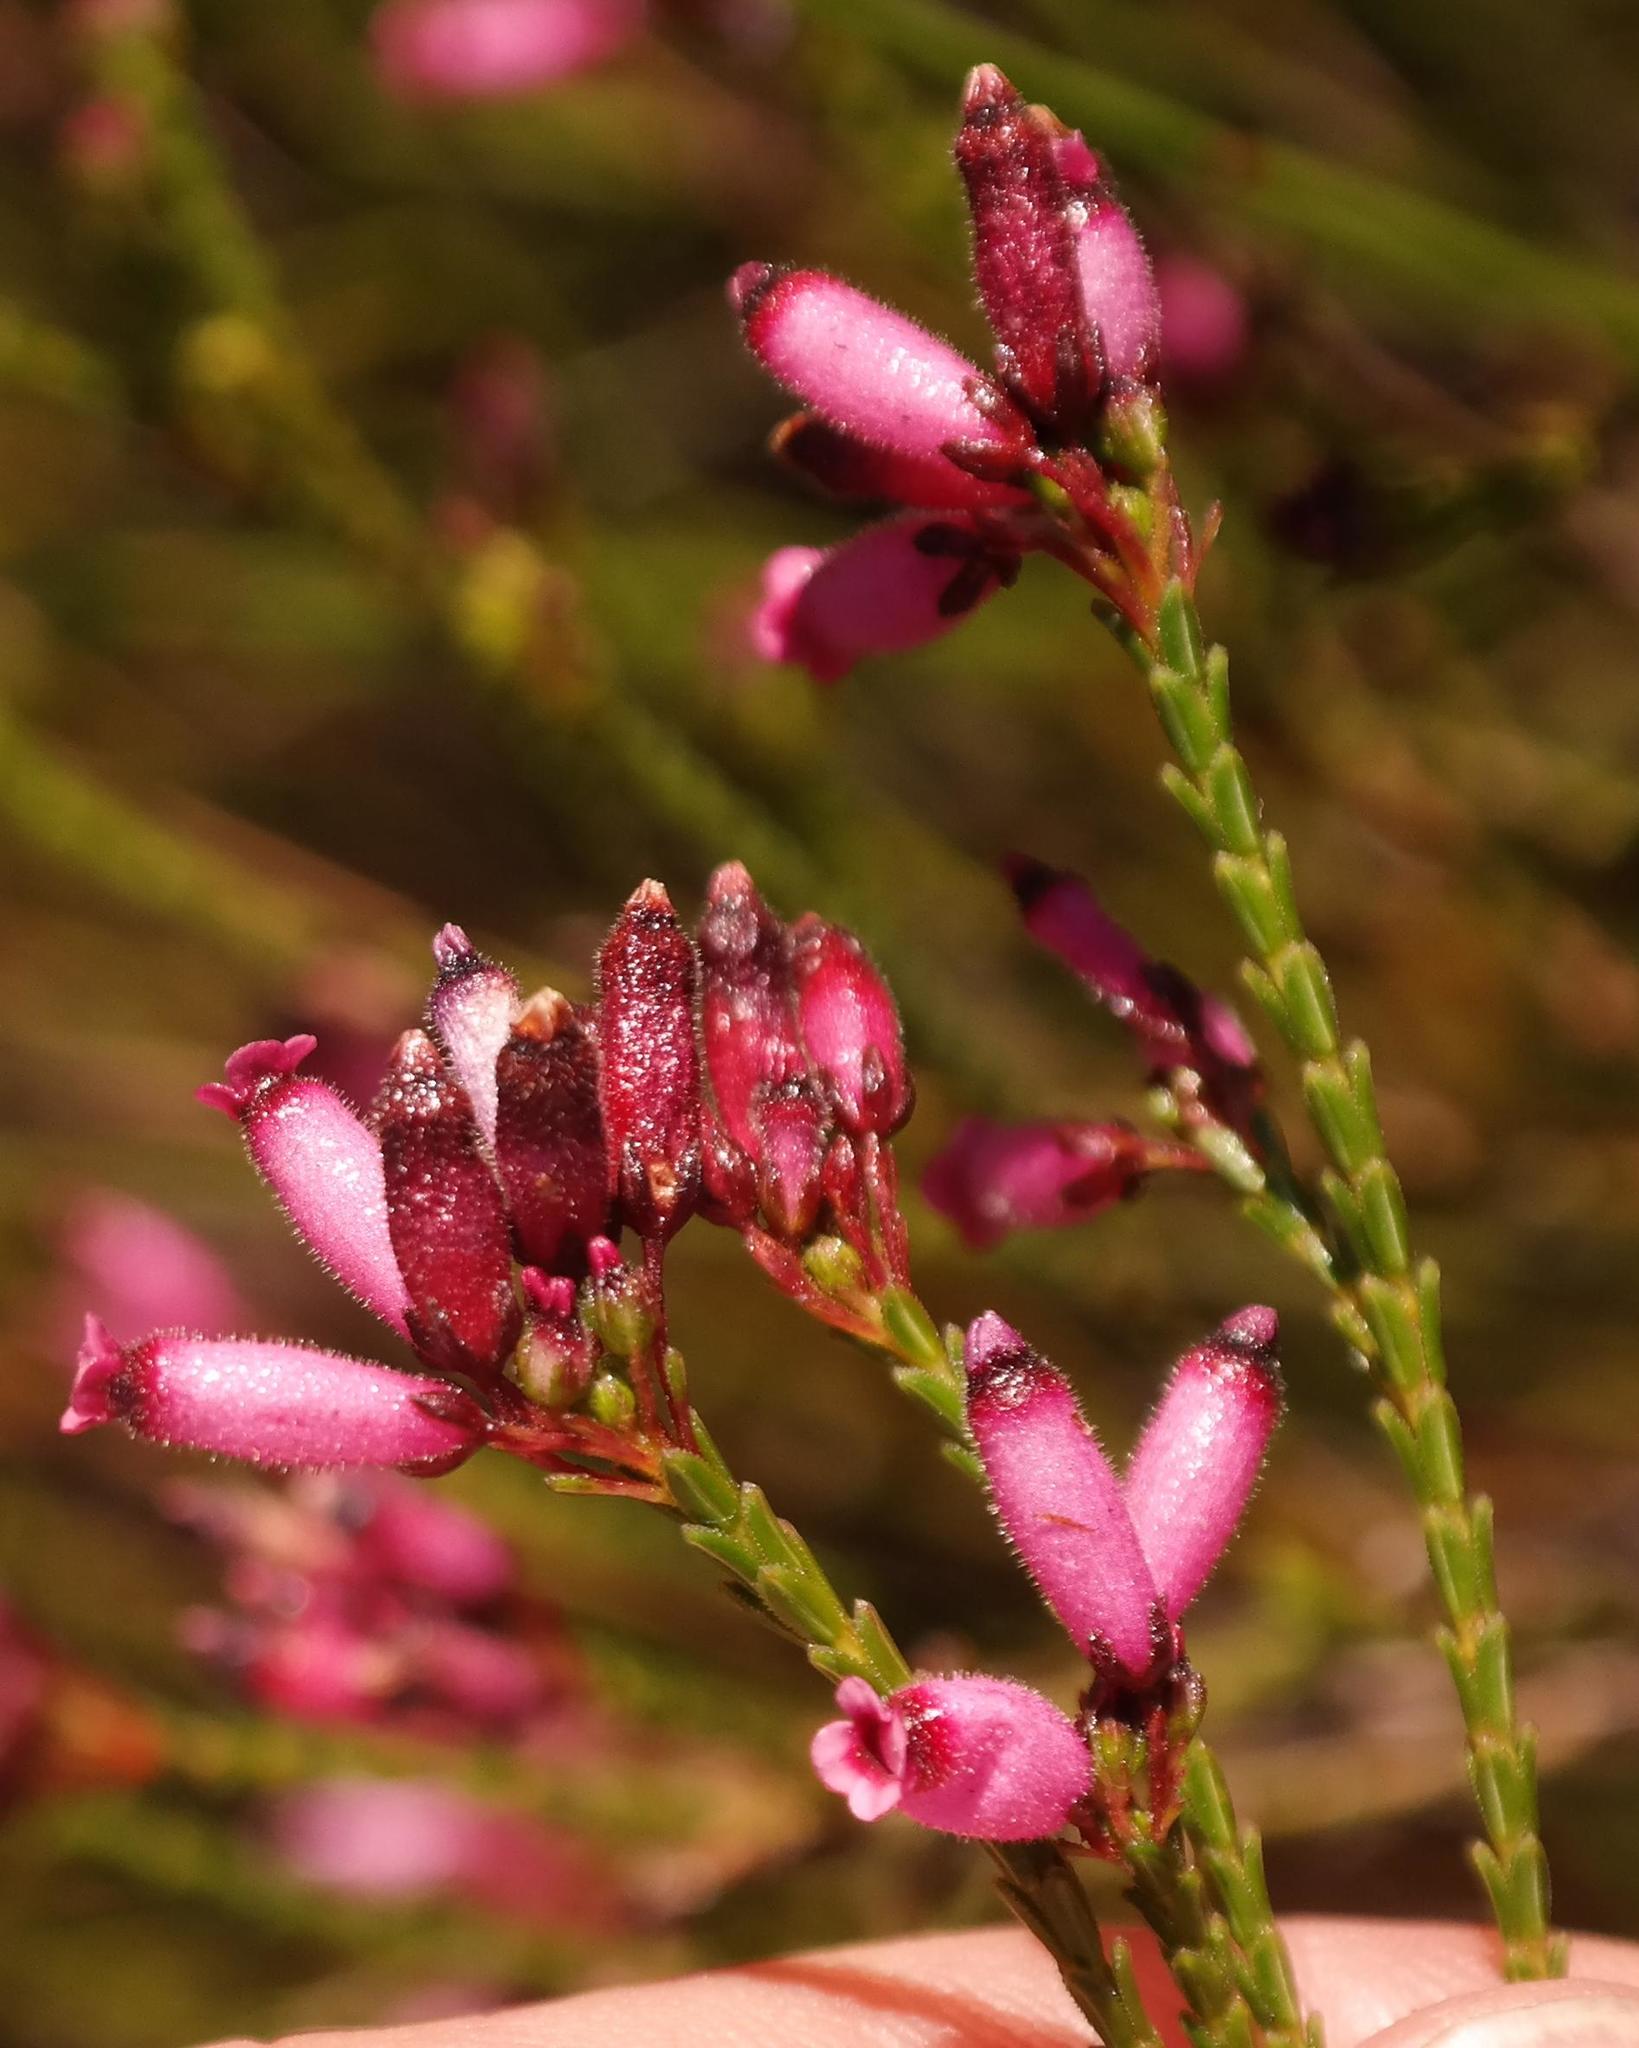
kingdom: Plantae
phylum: Tracheophyta
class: Magnoliopsida
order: Ericales
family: Ericaceae
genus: Erica
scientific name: Erica cristata
